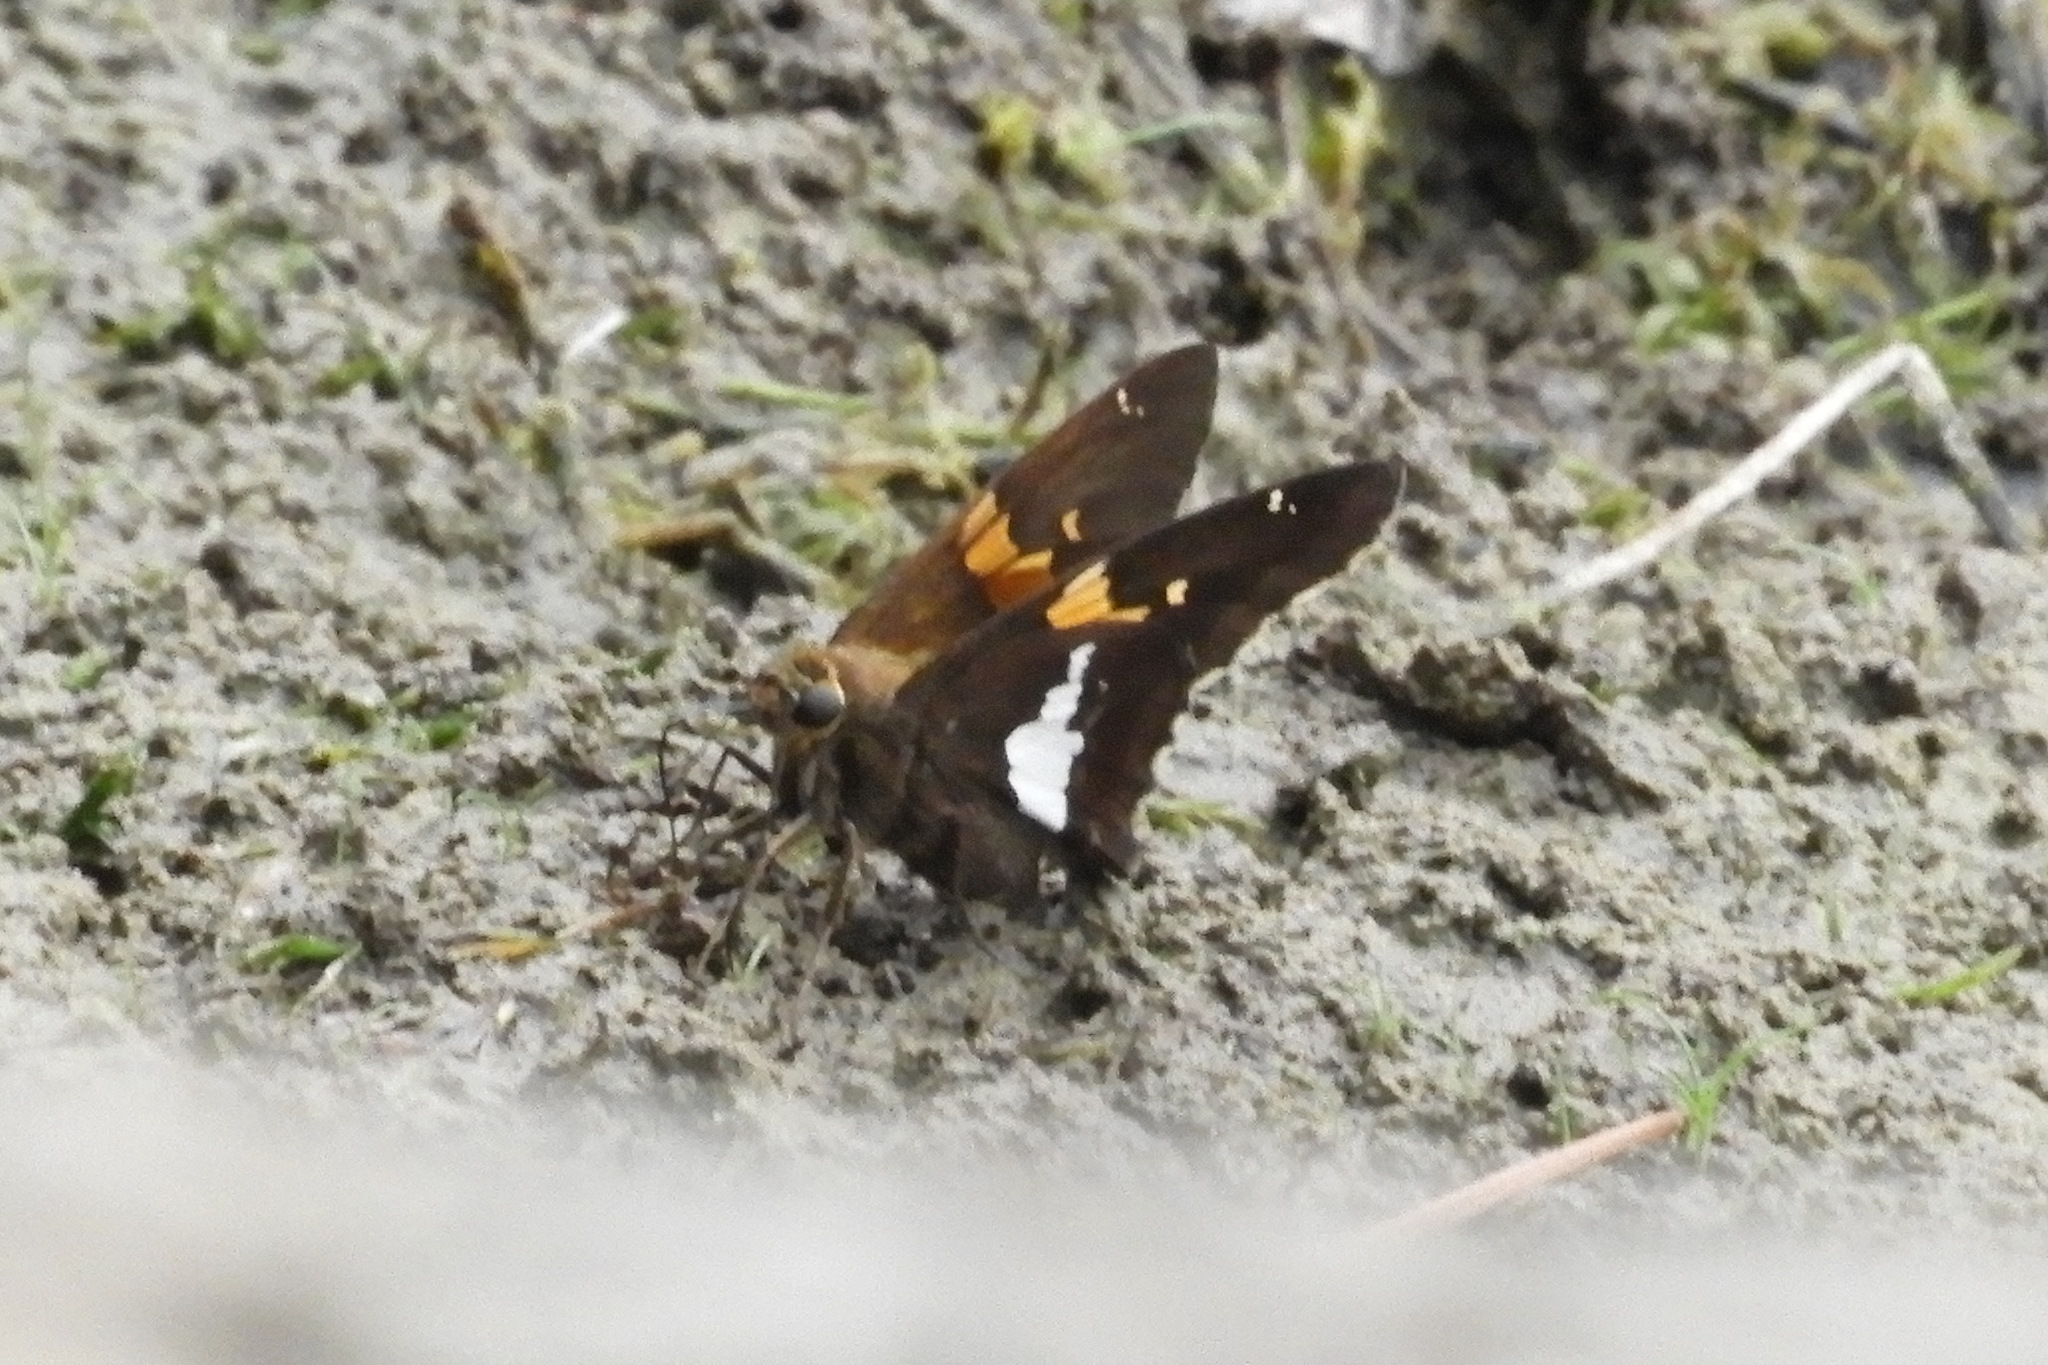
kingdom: Animalia
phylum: Arthropoda
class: Insecta
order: Lepidoptera
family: Hesperiidae
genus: Epargyreus
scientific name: Epargyreus clarus
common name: Silver-spotted skipper
